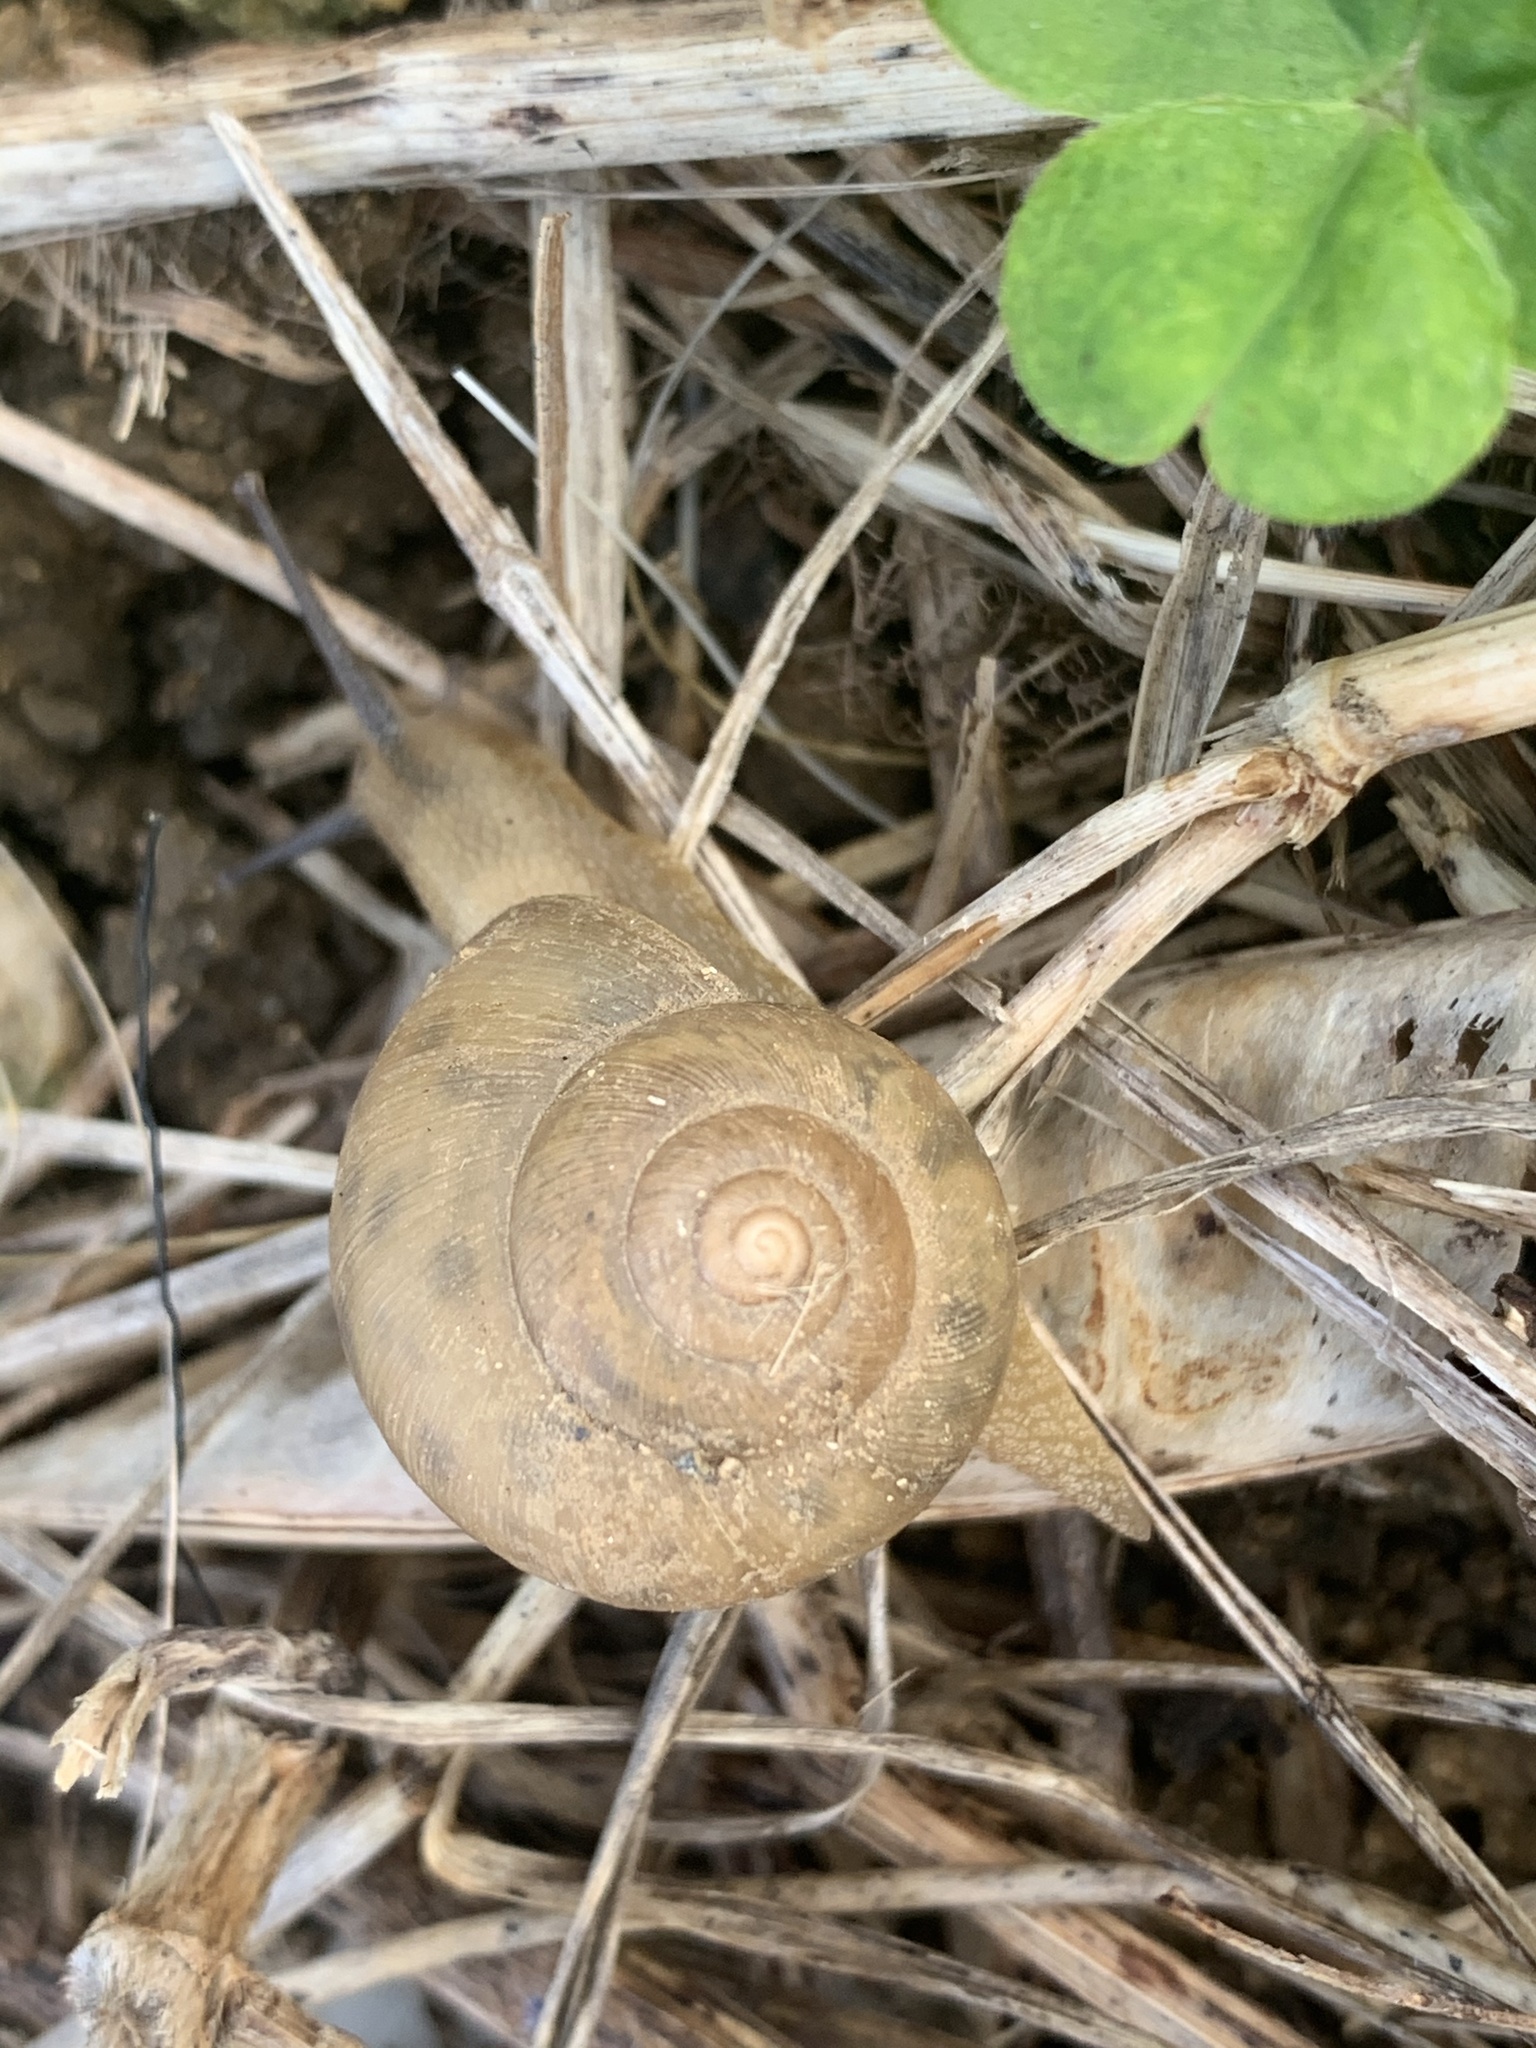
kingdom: Animalia
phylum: Mollusca
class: Gastropoda
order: Stylommatophora
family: Camaenidae
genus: Acusta
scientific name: Acusta despecta
